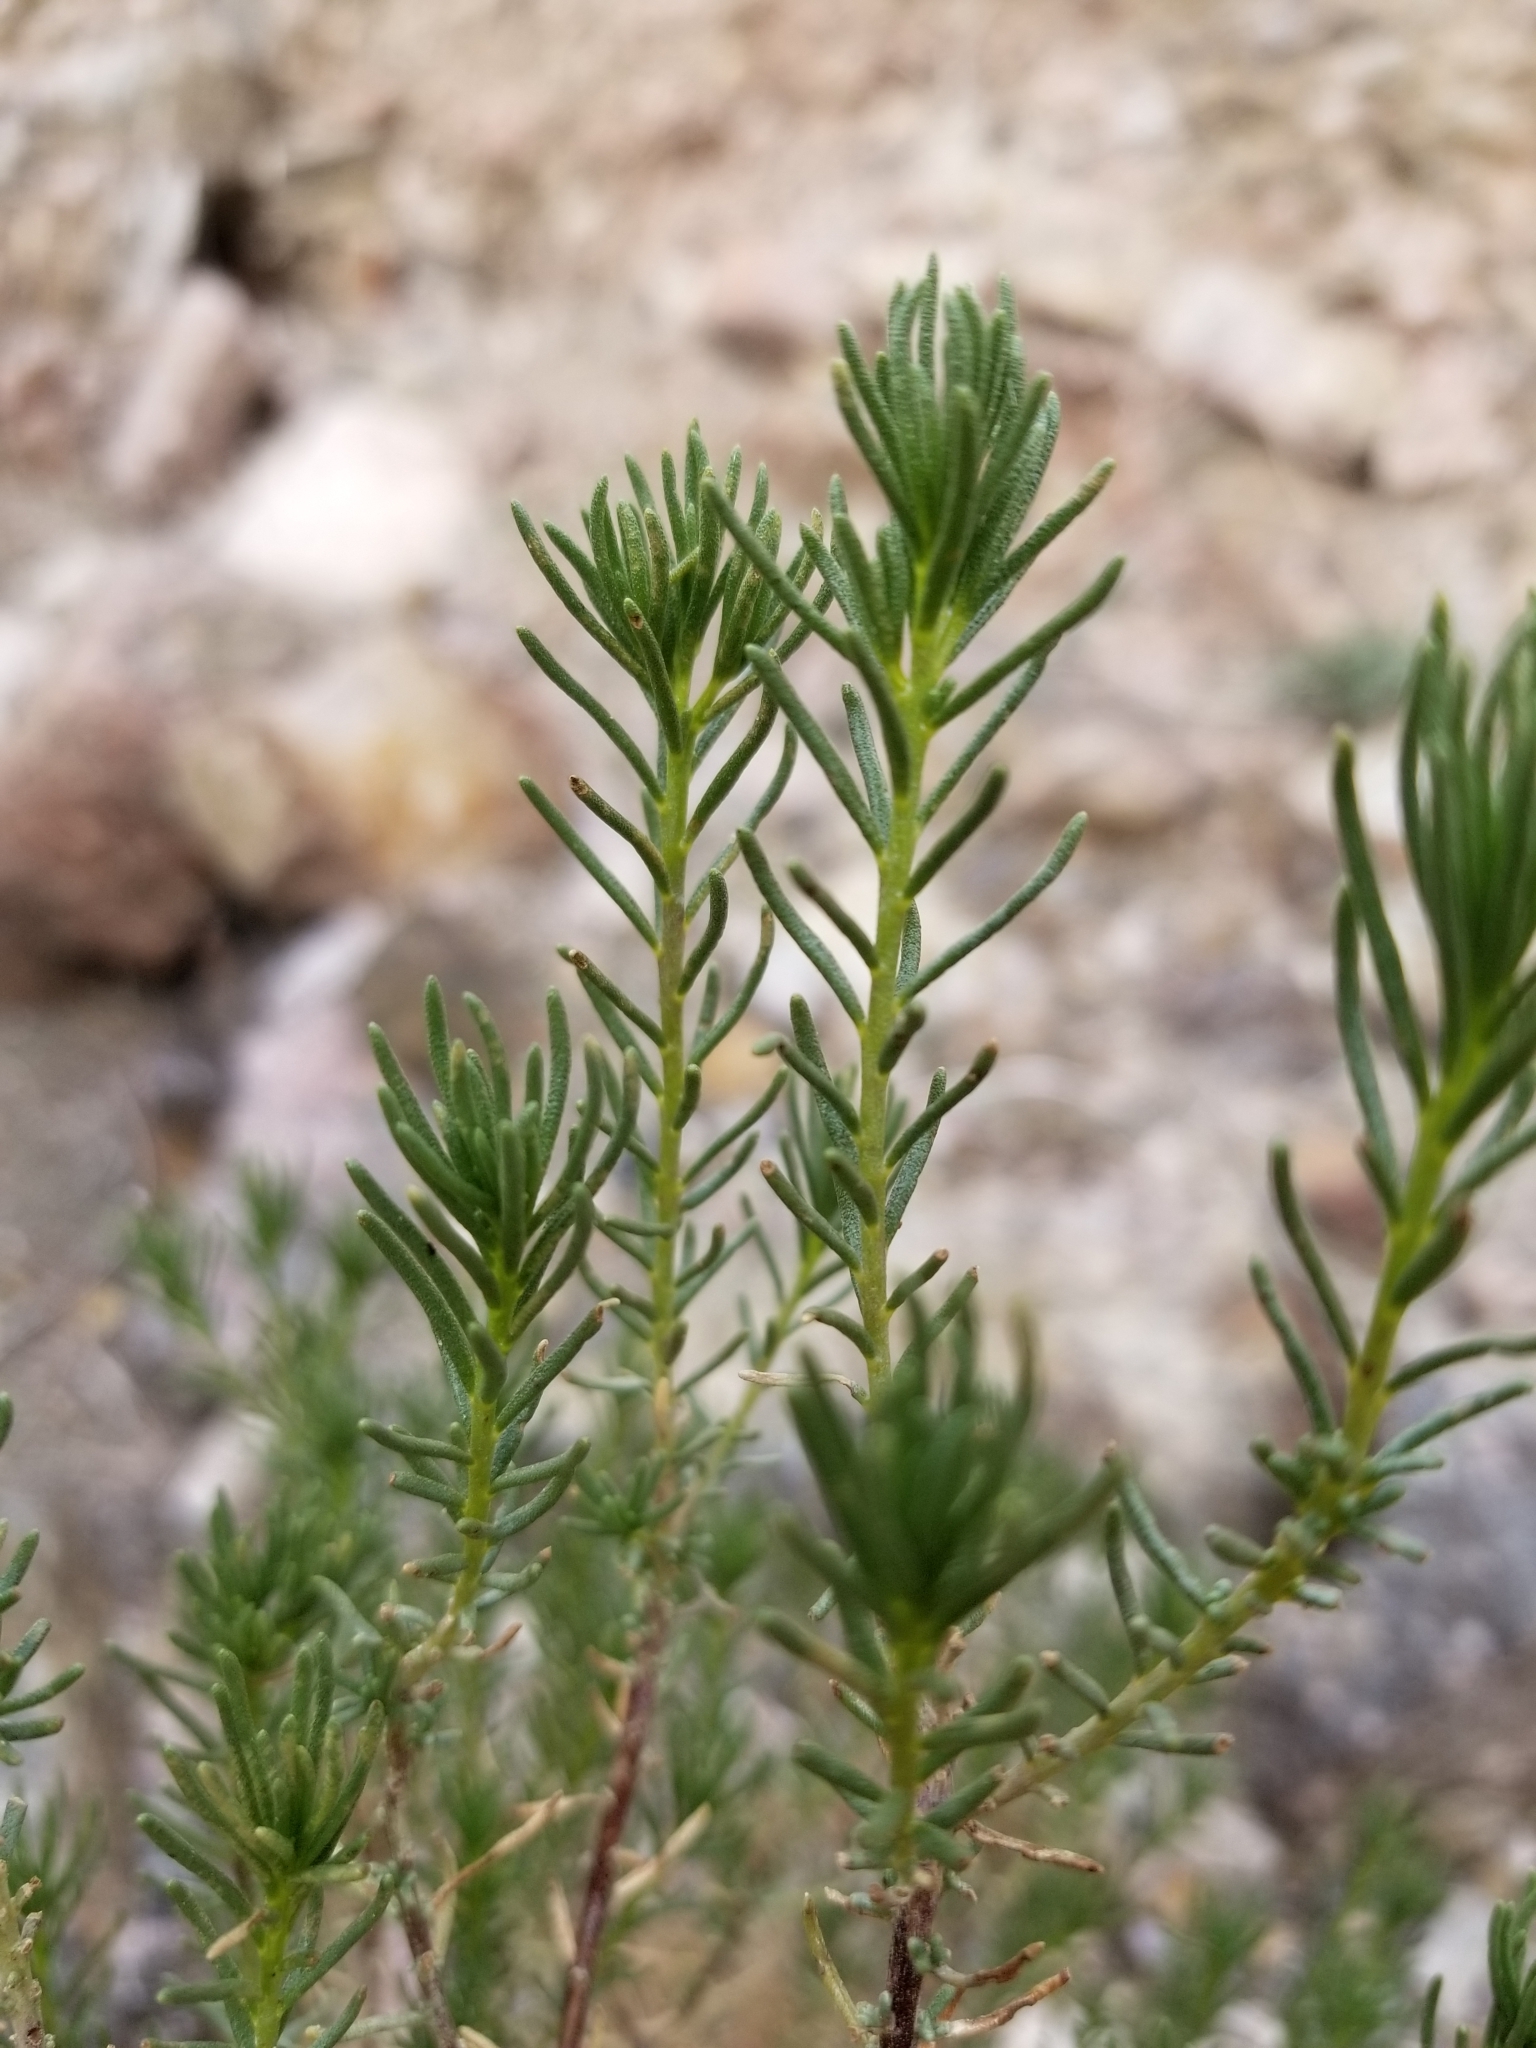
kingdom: Plantae
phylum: Tracheophyta
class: Magnoliopsida
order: Asterales
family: Asteraceae
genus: Peucephyllum
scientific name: Peucephyllum schottii
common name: Pygmy-cedar
